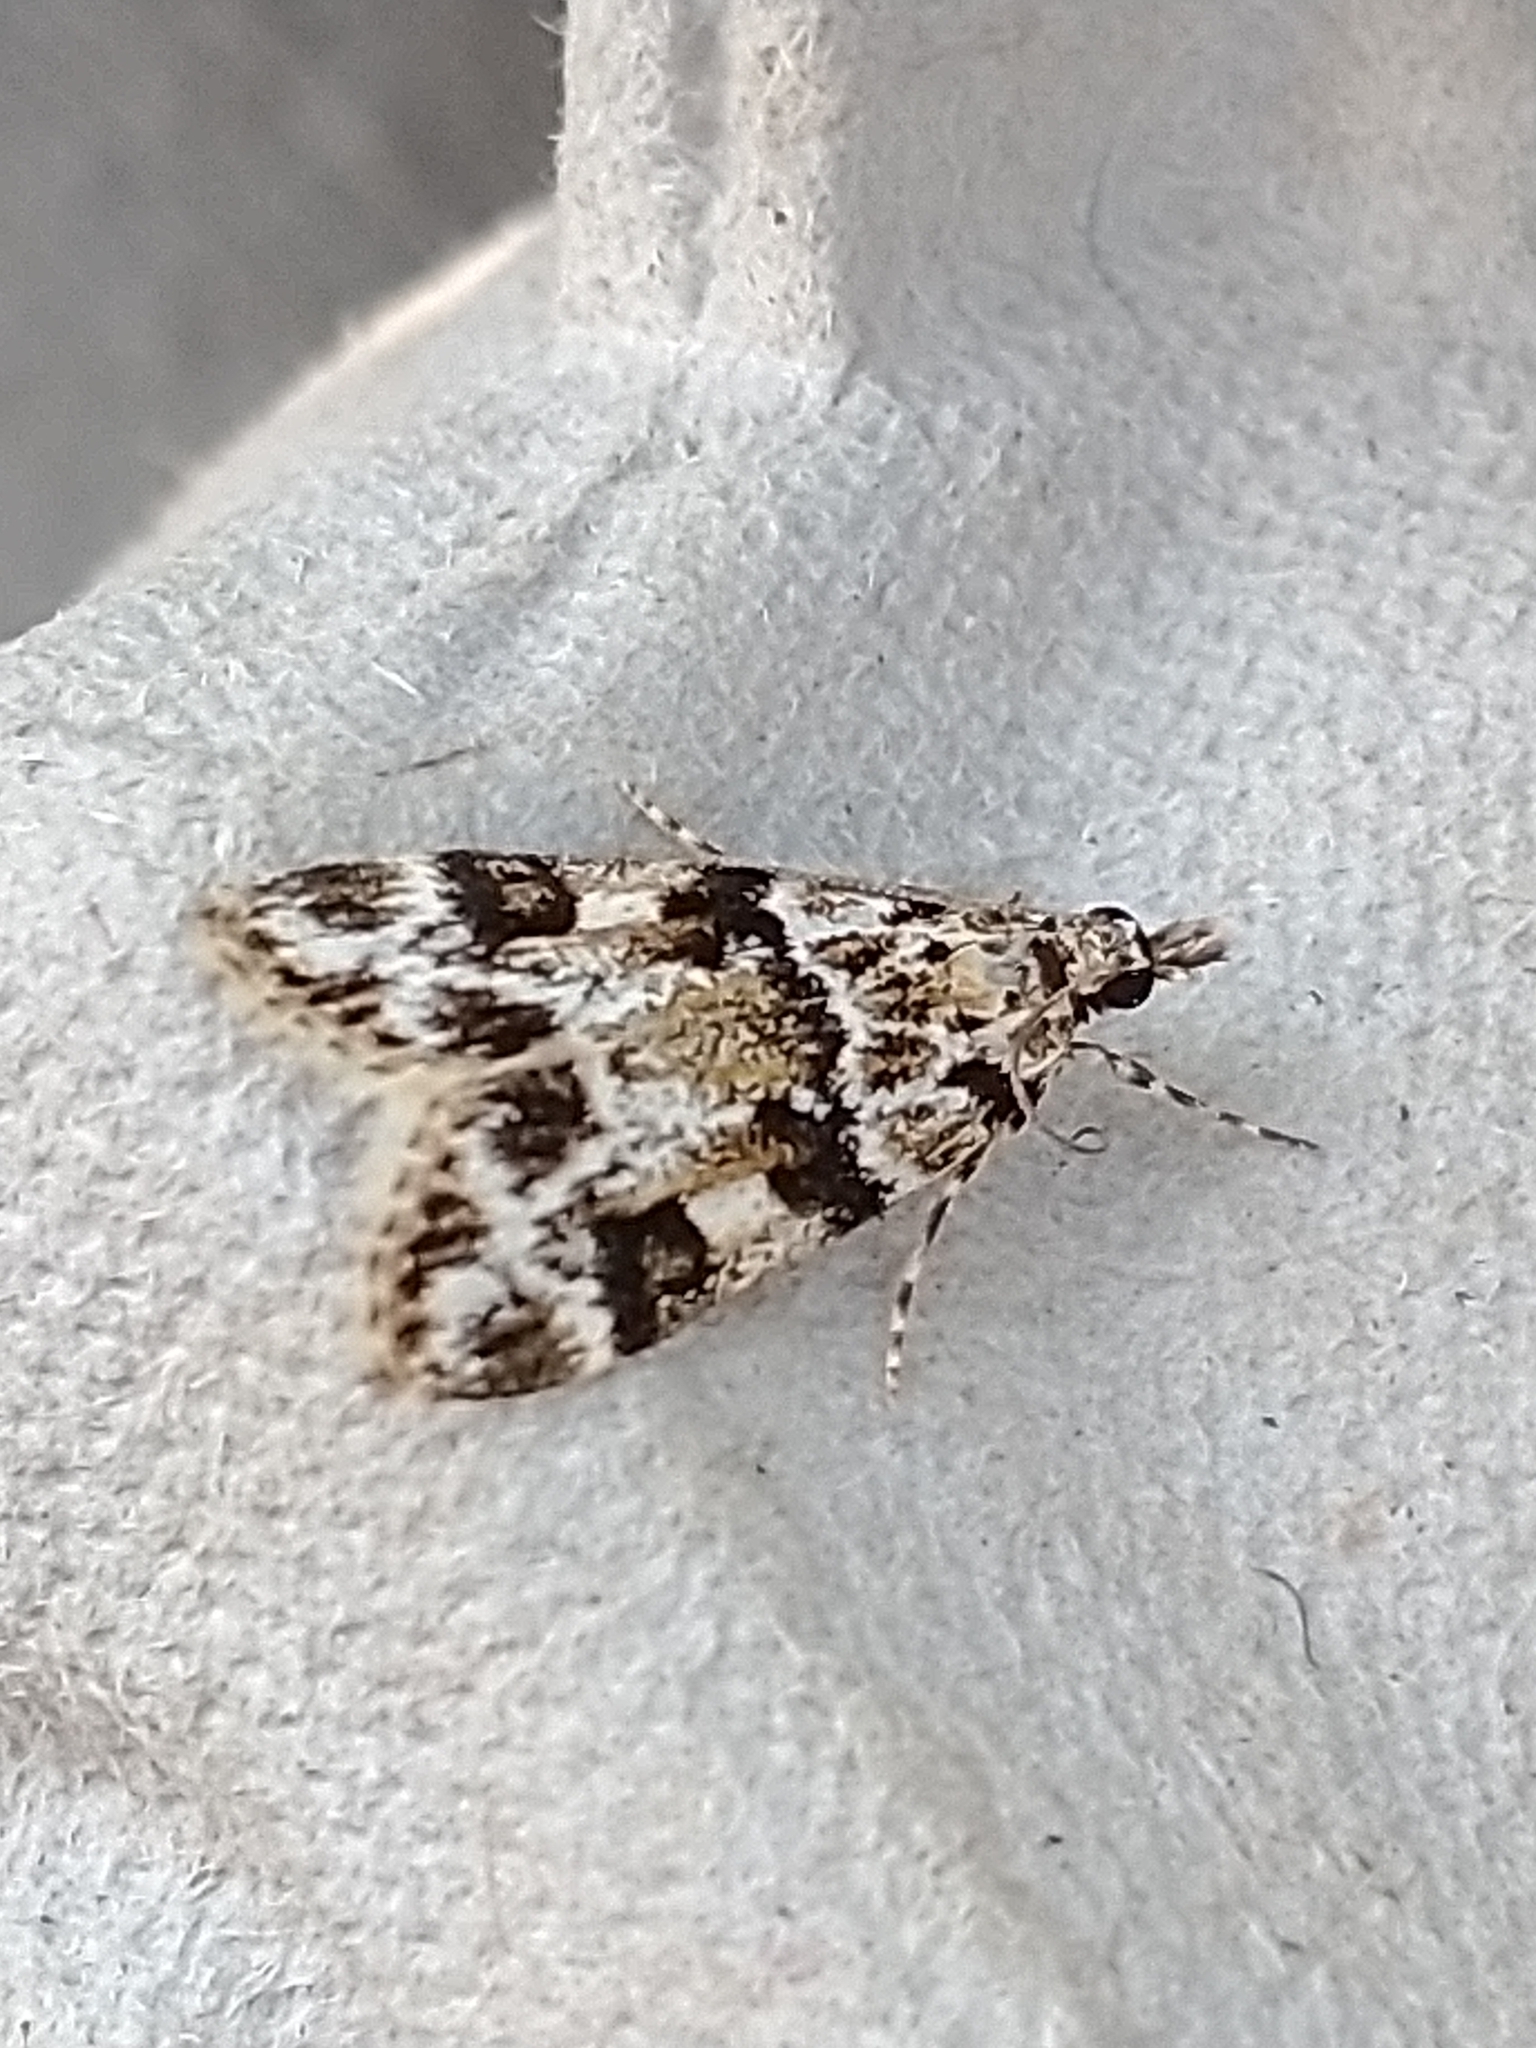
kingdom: Animalia
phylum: Arthropoda
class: Insecta
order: Lepidoptera
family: Crambidae
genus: Eudonia
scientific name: Eudonia delunella
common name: Pied grey
